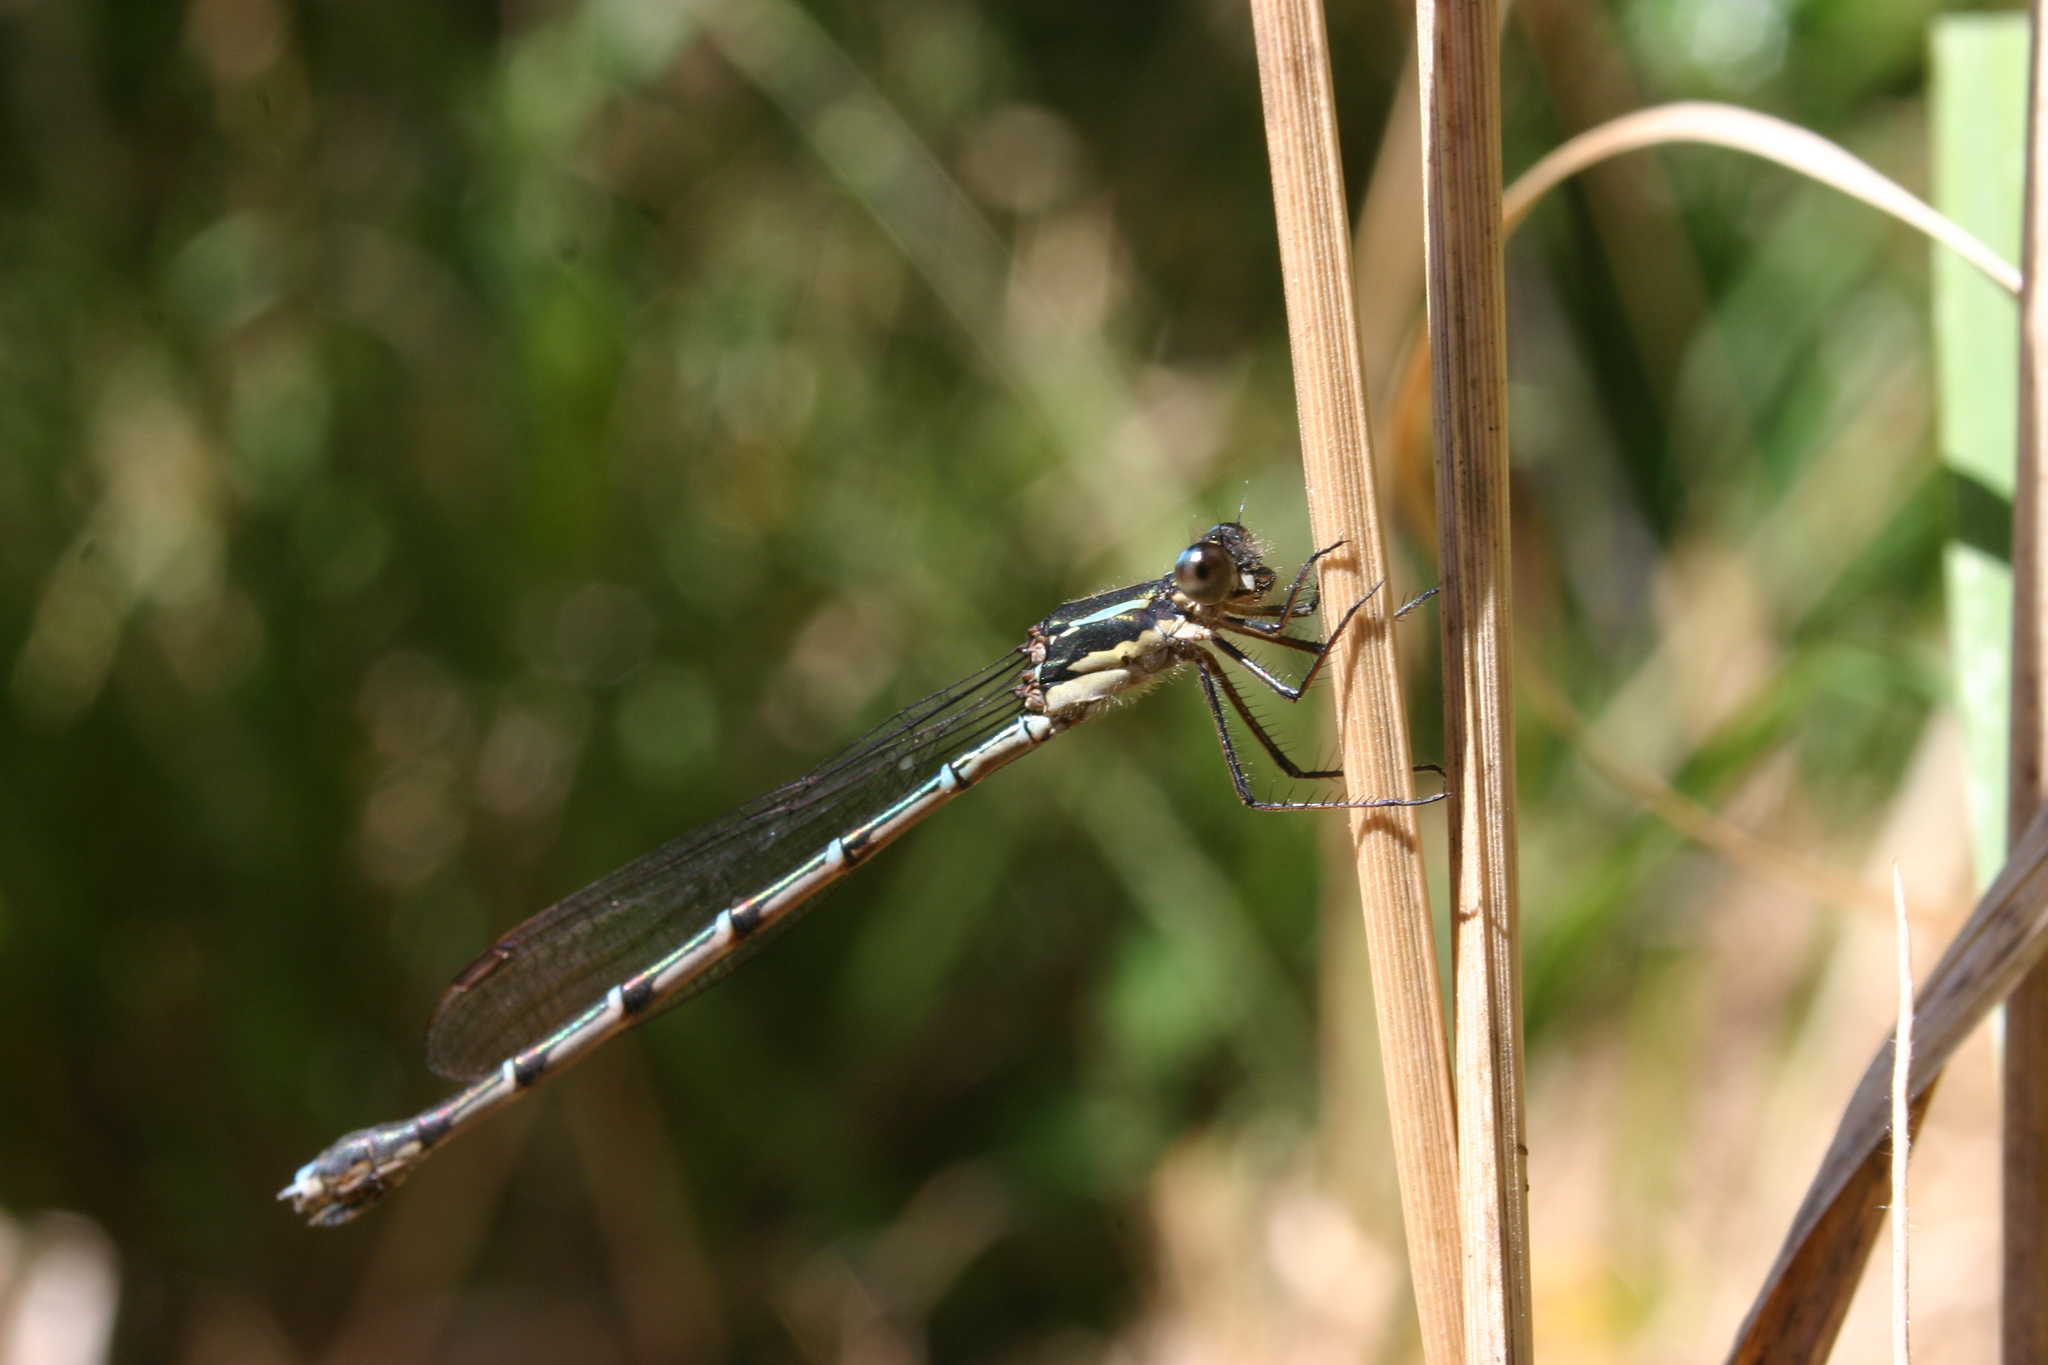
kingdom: Animalia
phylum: Arthropoda
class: Insecta
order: Odonata
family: Lestidae
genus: Austrolestes
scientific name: Austrolestes colensonis
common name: Blue damselfly
